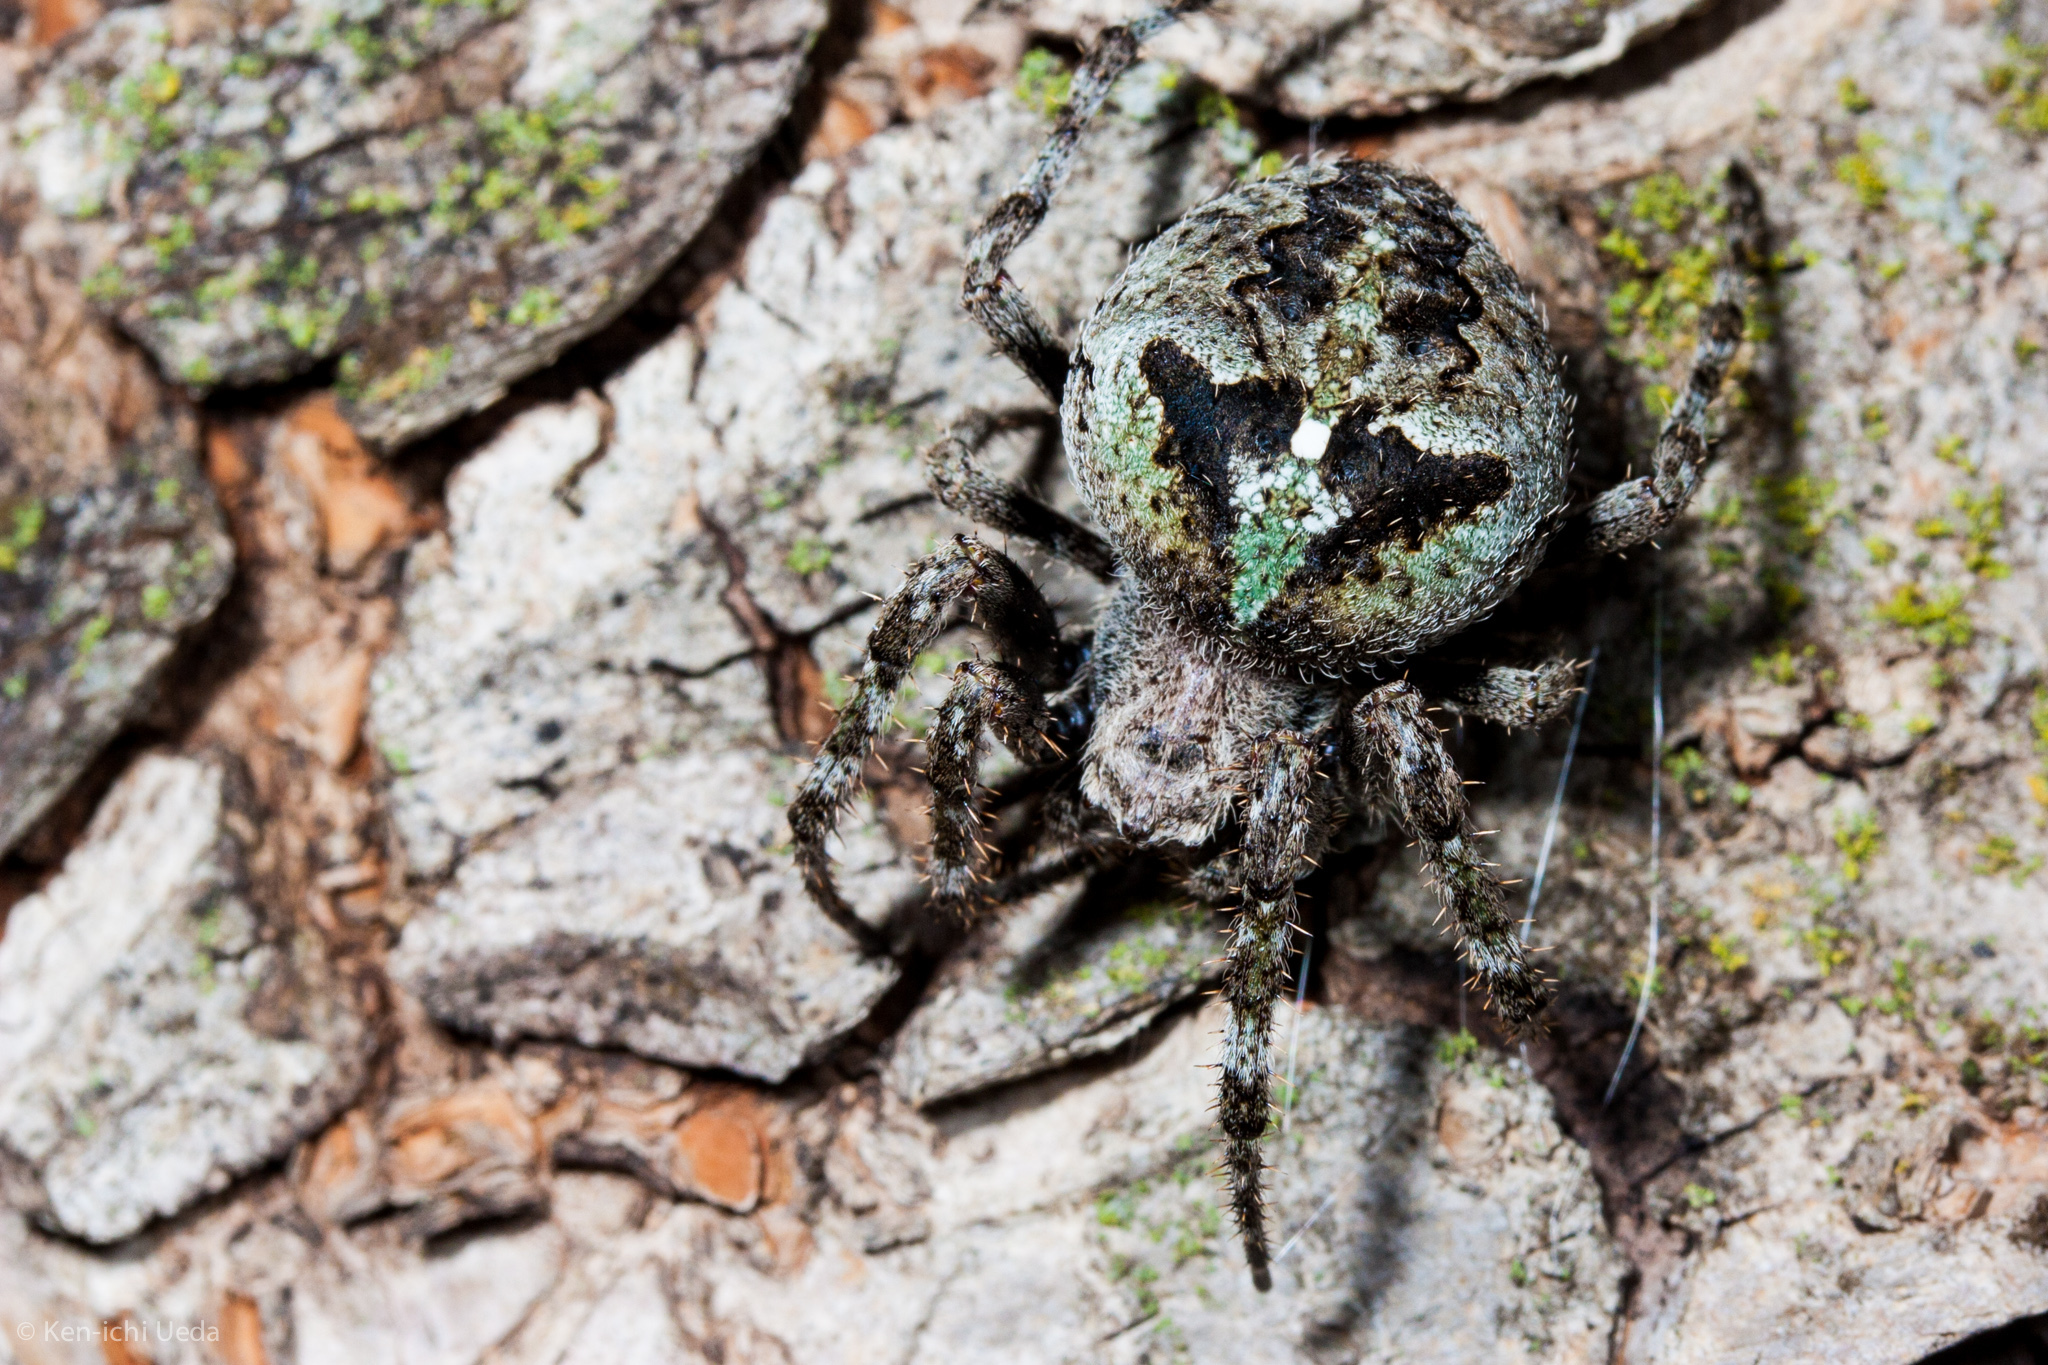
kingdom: Animalia
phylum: Arthropoda
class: Arachnida
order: Araneae
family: Araneidae
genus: Araneus
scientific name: Araneus andrewsi
